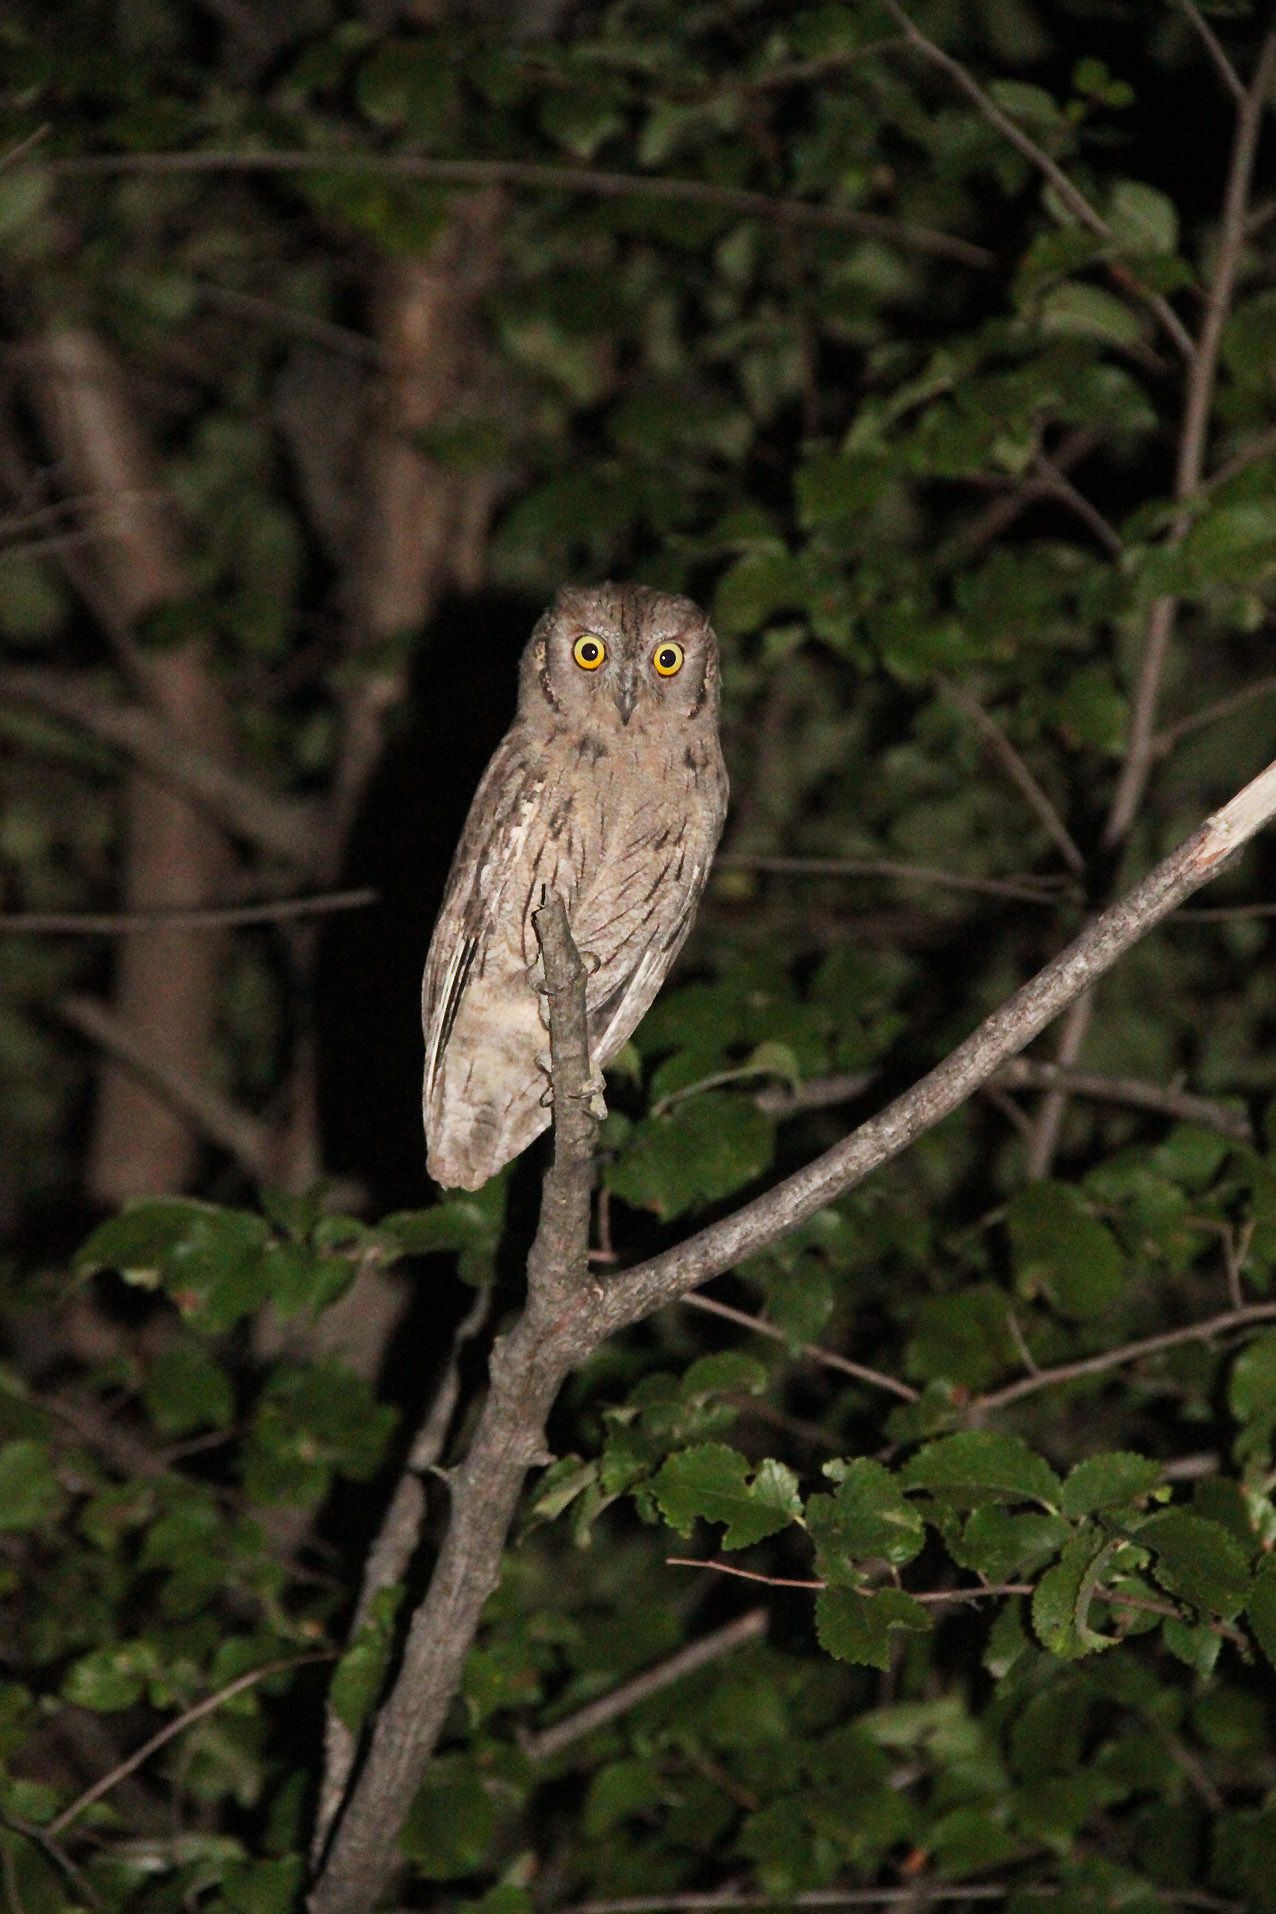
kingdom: Animalia
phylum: Chordata
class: Aves
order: Strigiformes
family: Strigidae
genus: Otus
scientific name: Otus scops
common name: Eurasian scops owl
